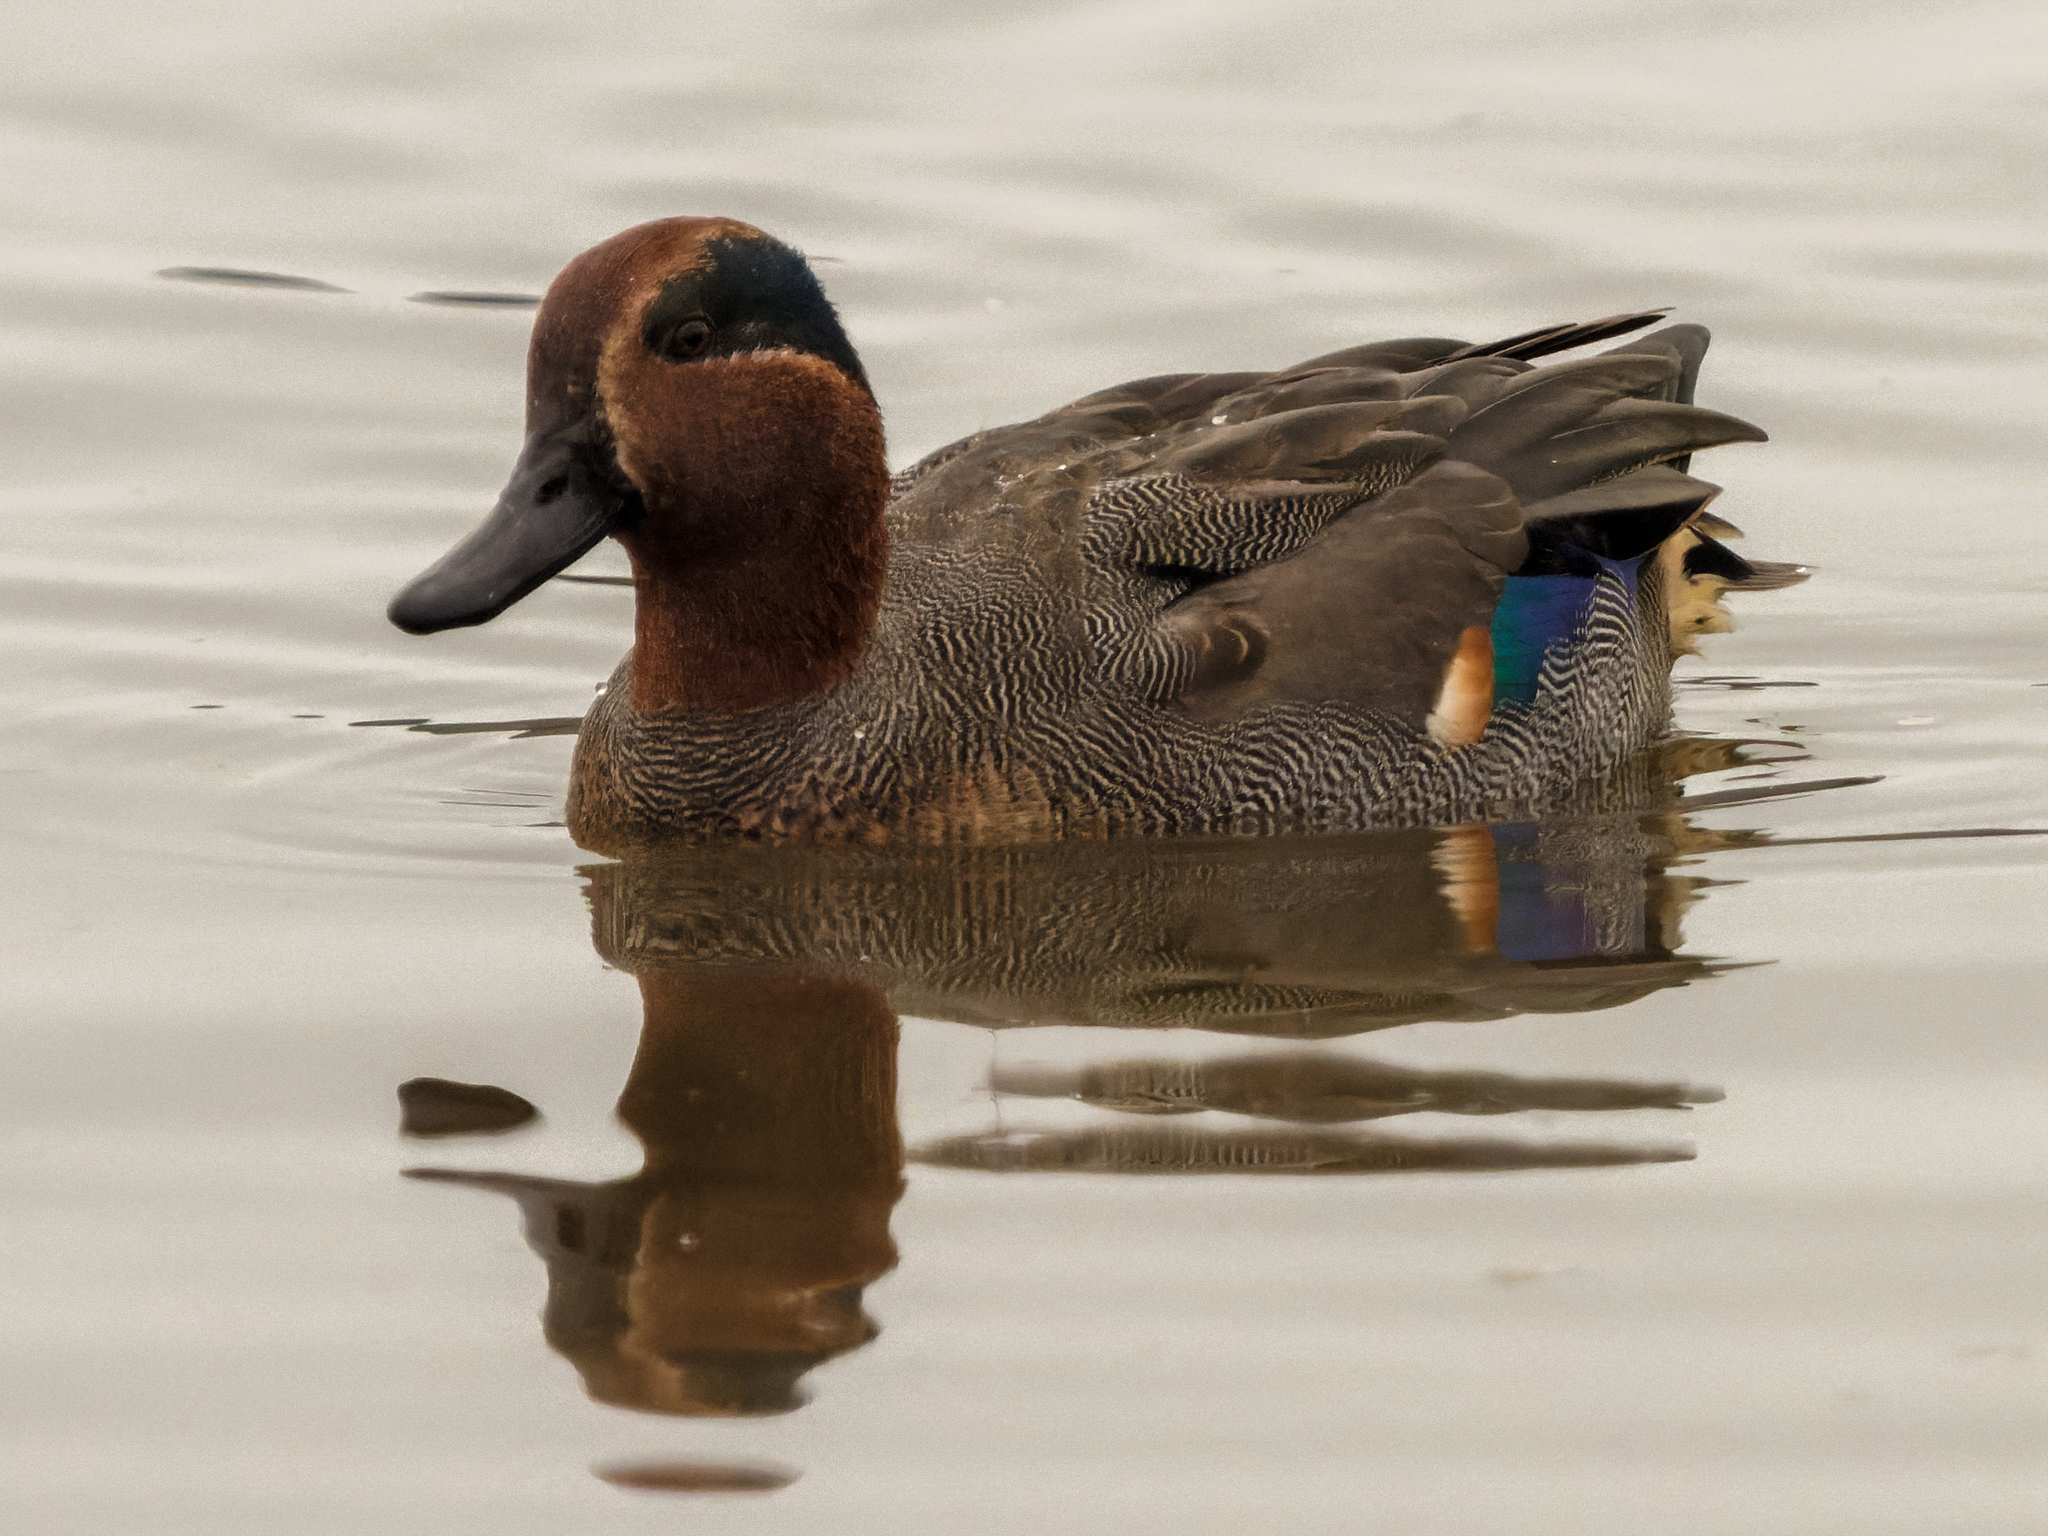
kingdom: Animalia
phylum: Chordata
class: Aves
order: Anseriformes
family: Anatidae
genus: Anas
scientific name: Anas crecca
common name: Eurasian teal
